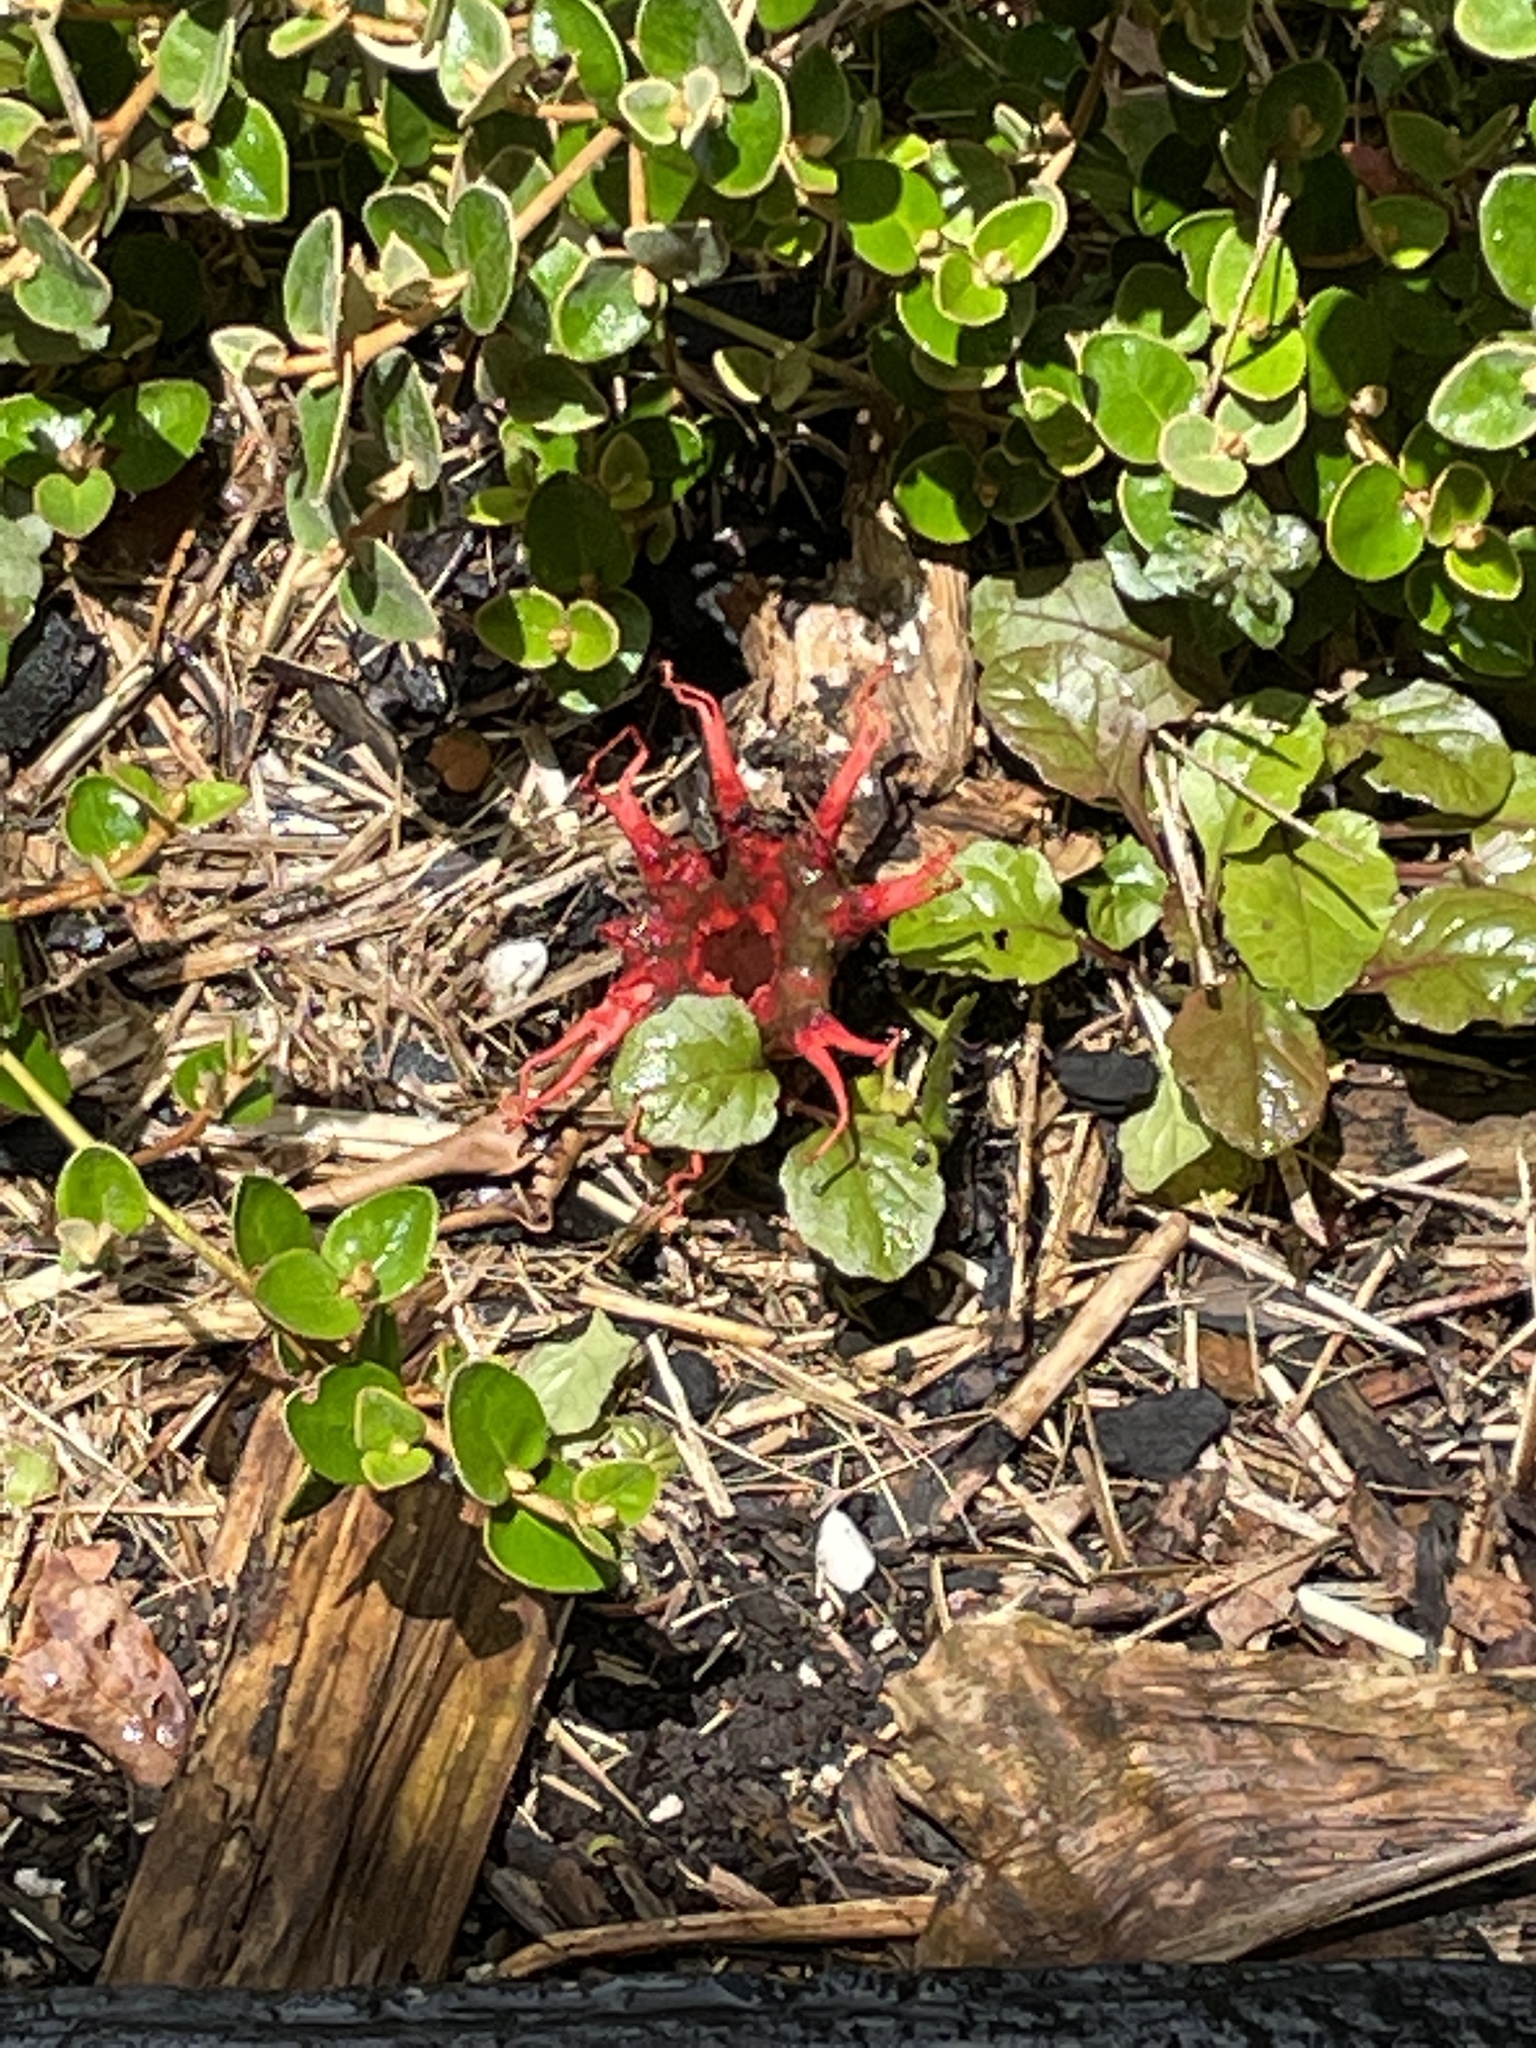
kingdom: Fungi
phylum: Basidiomycota
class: Agaricomycetes
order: Phallales
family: Phallaceae
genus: Aseroe
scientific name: Aseroe rubra
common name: Starfish fungus
